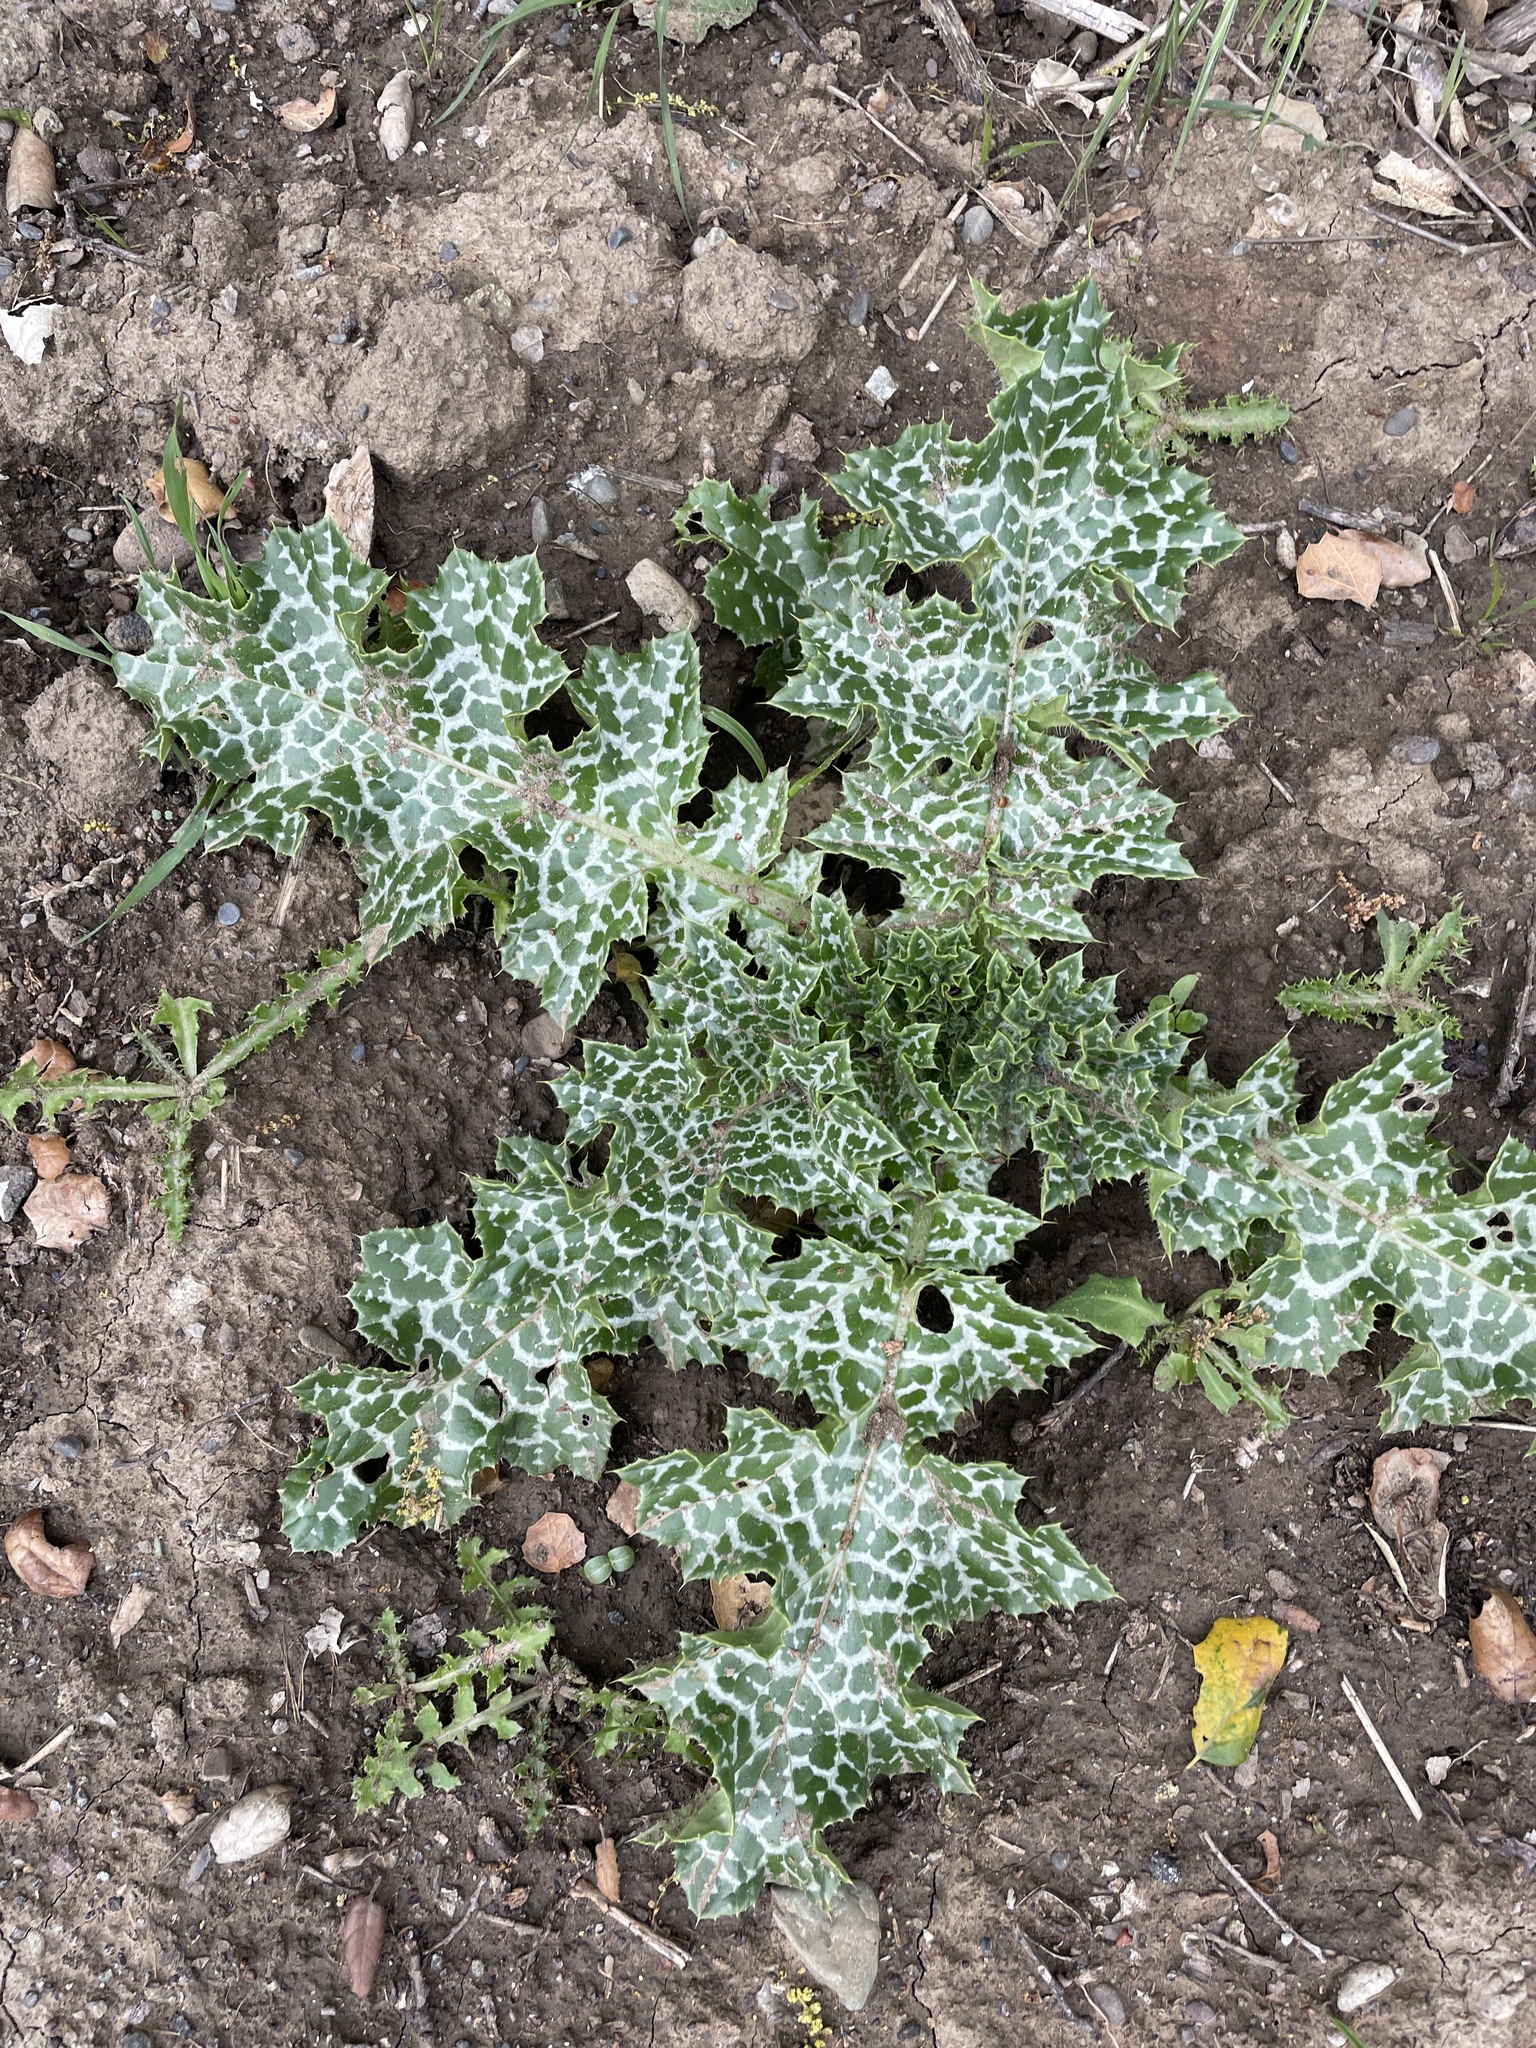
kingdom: Plantae
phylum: Tracheophyta
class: Magnoliopsida
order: Asterales
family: Asteraceae
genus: Silybum
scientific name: Silybum marianum
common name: Milk thistle
